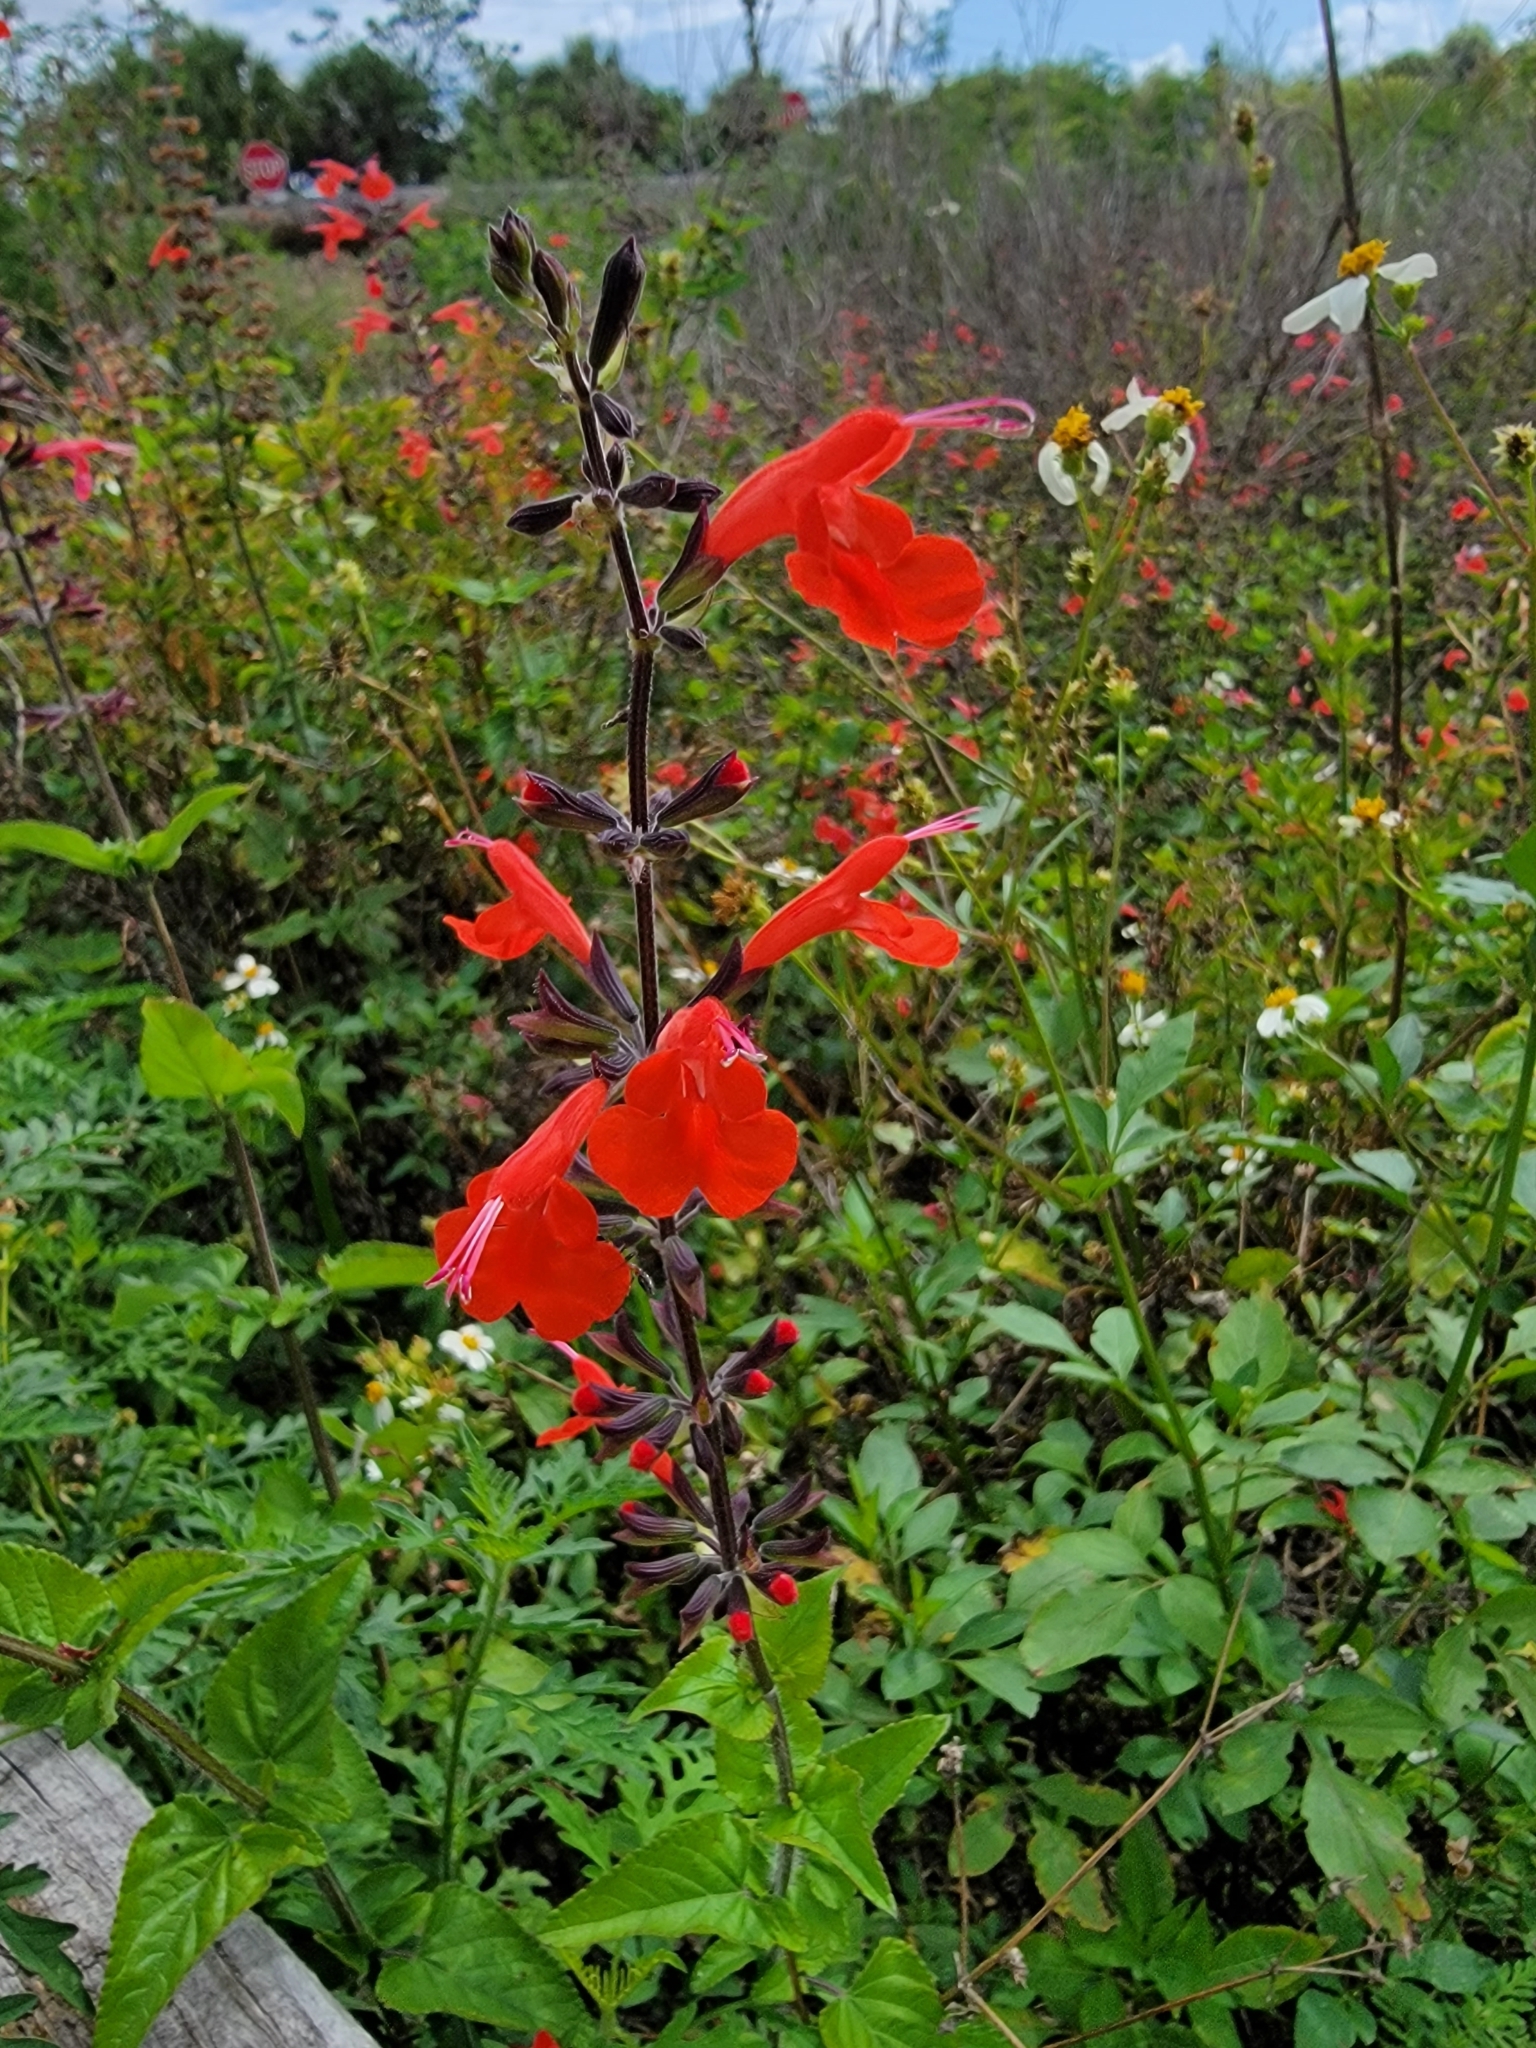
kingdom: Plantae
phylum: Tracheophyta
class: Magnoliopsida
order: Lamiales
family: Lamiaceae
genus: Salvia
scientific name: Salvia coccinea
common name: Blood sage
